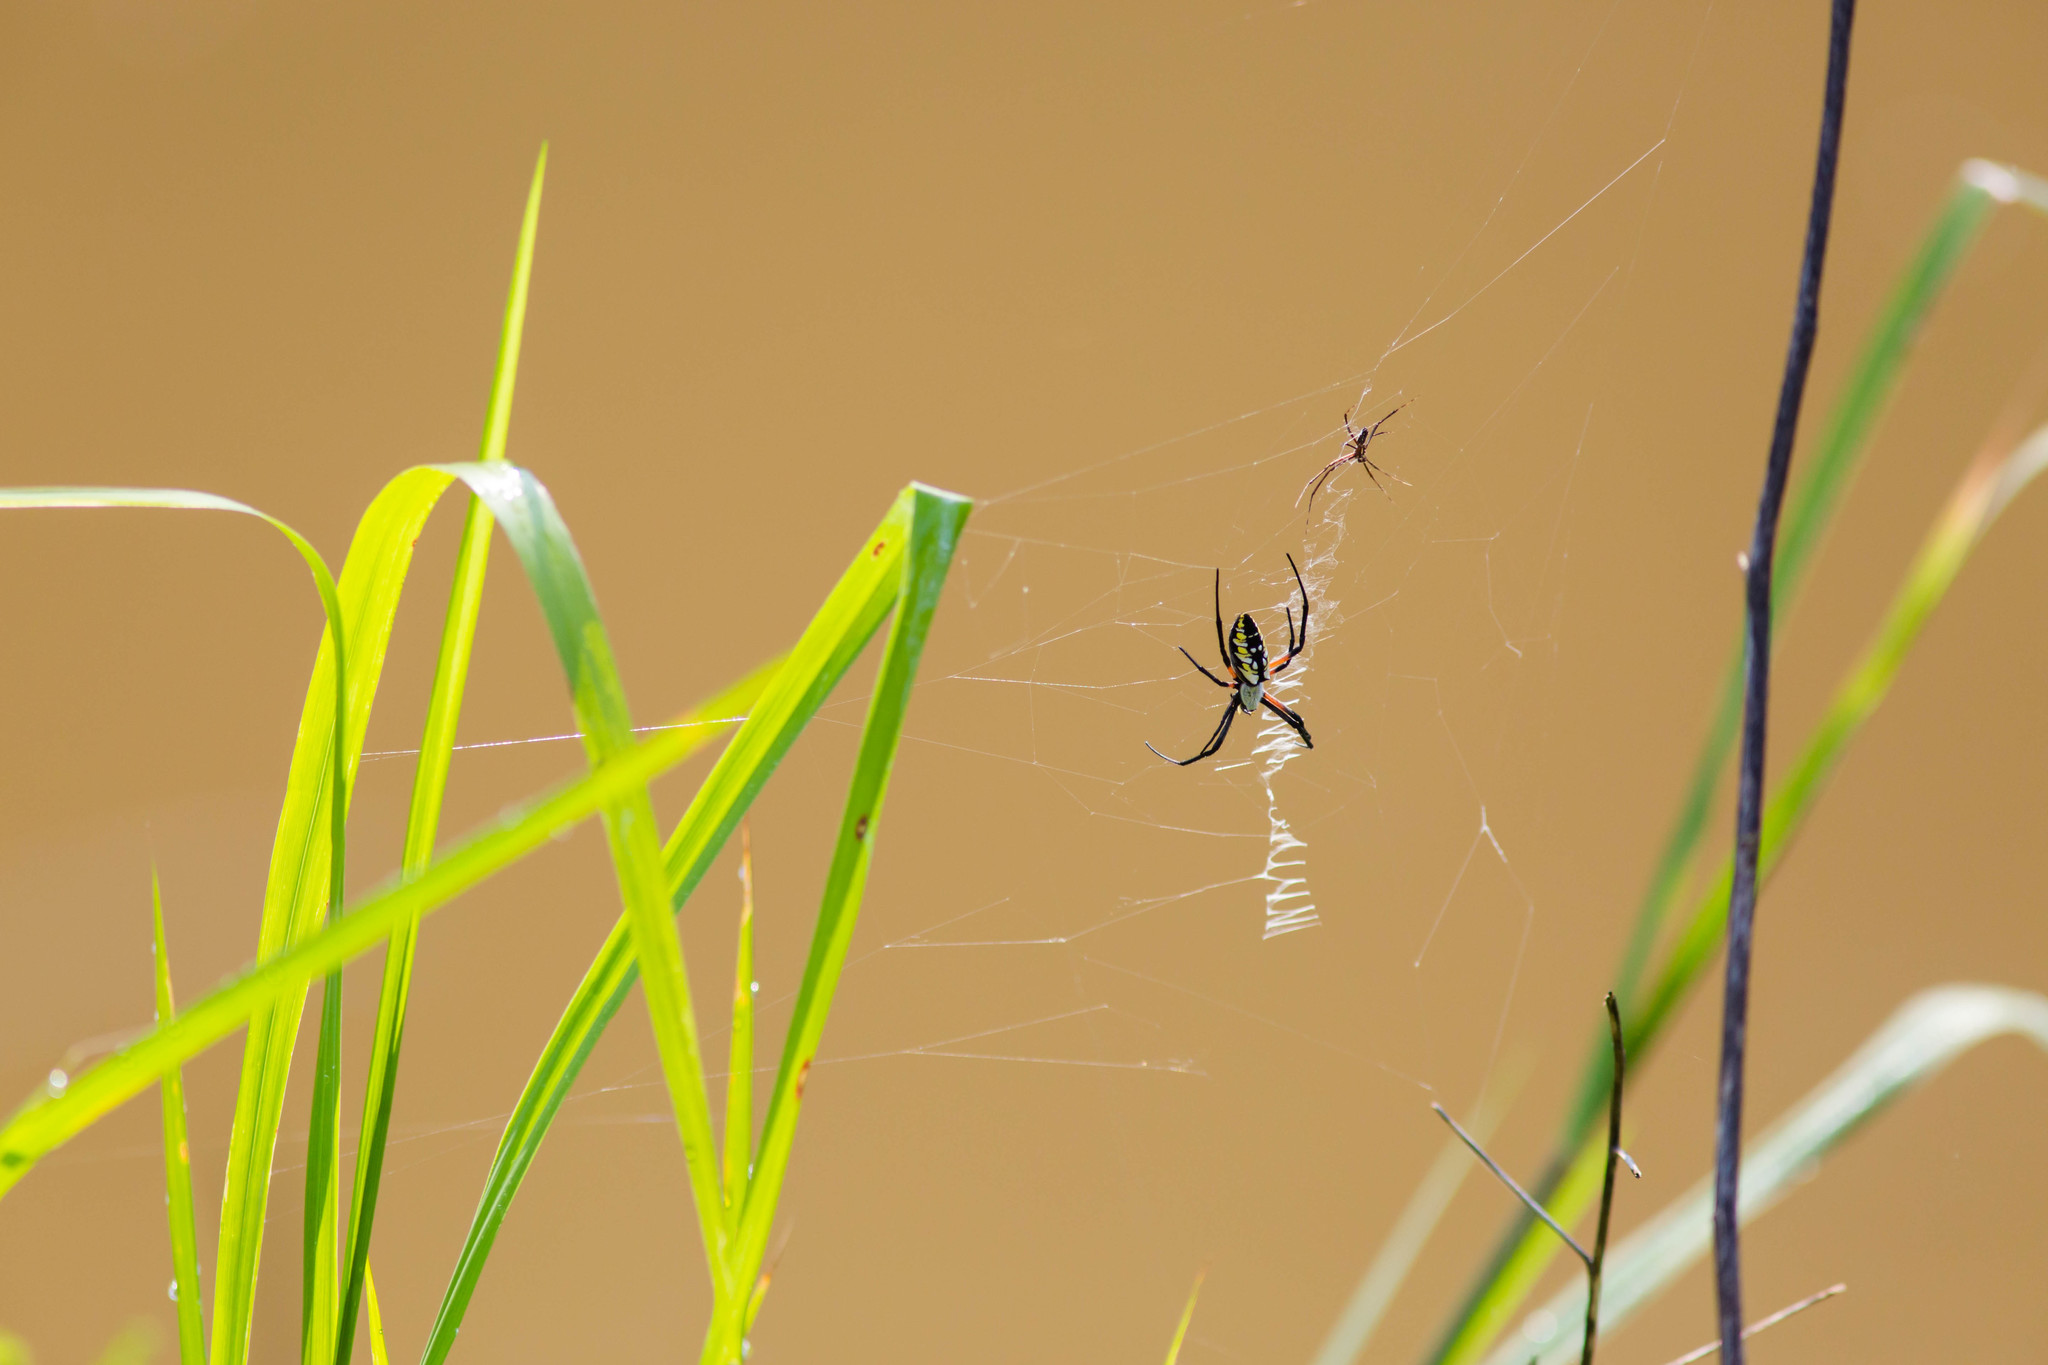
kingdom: Animalia
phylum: Arthropoda
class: Arachnida
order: Araneae
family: Araneidae
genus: Argiope
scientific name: Argiope aurantia
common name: Orb weavers
